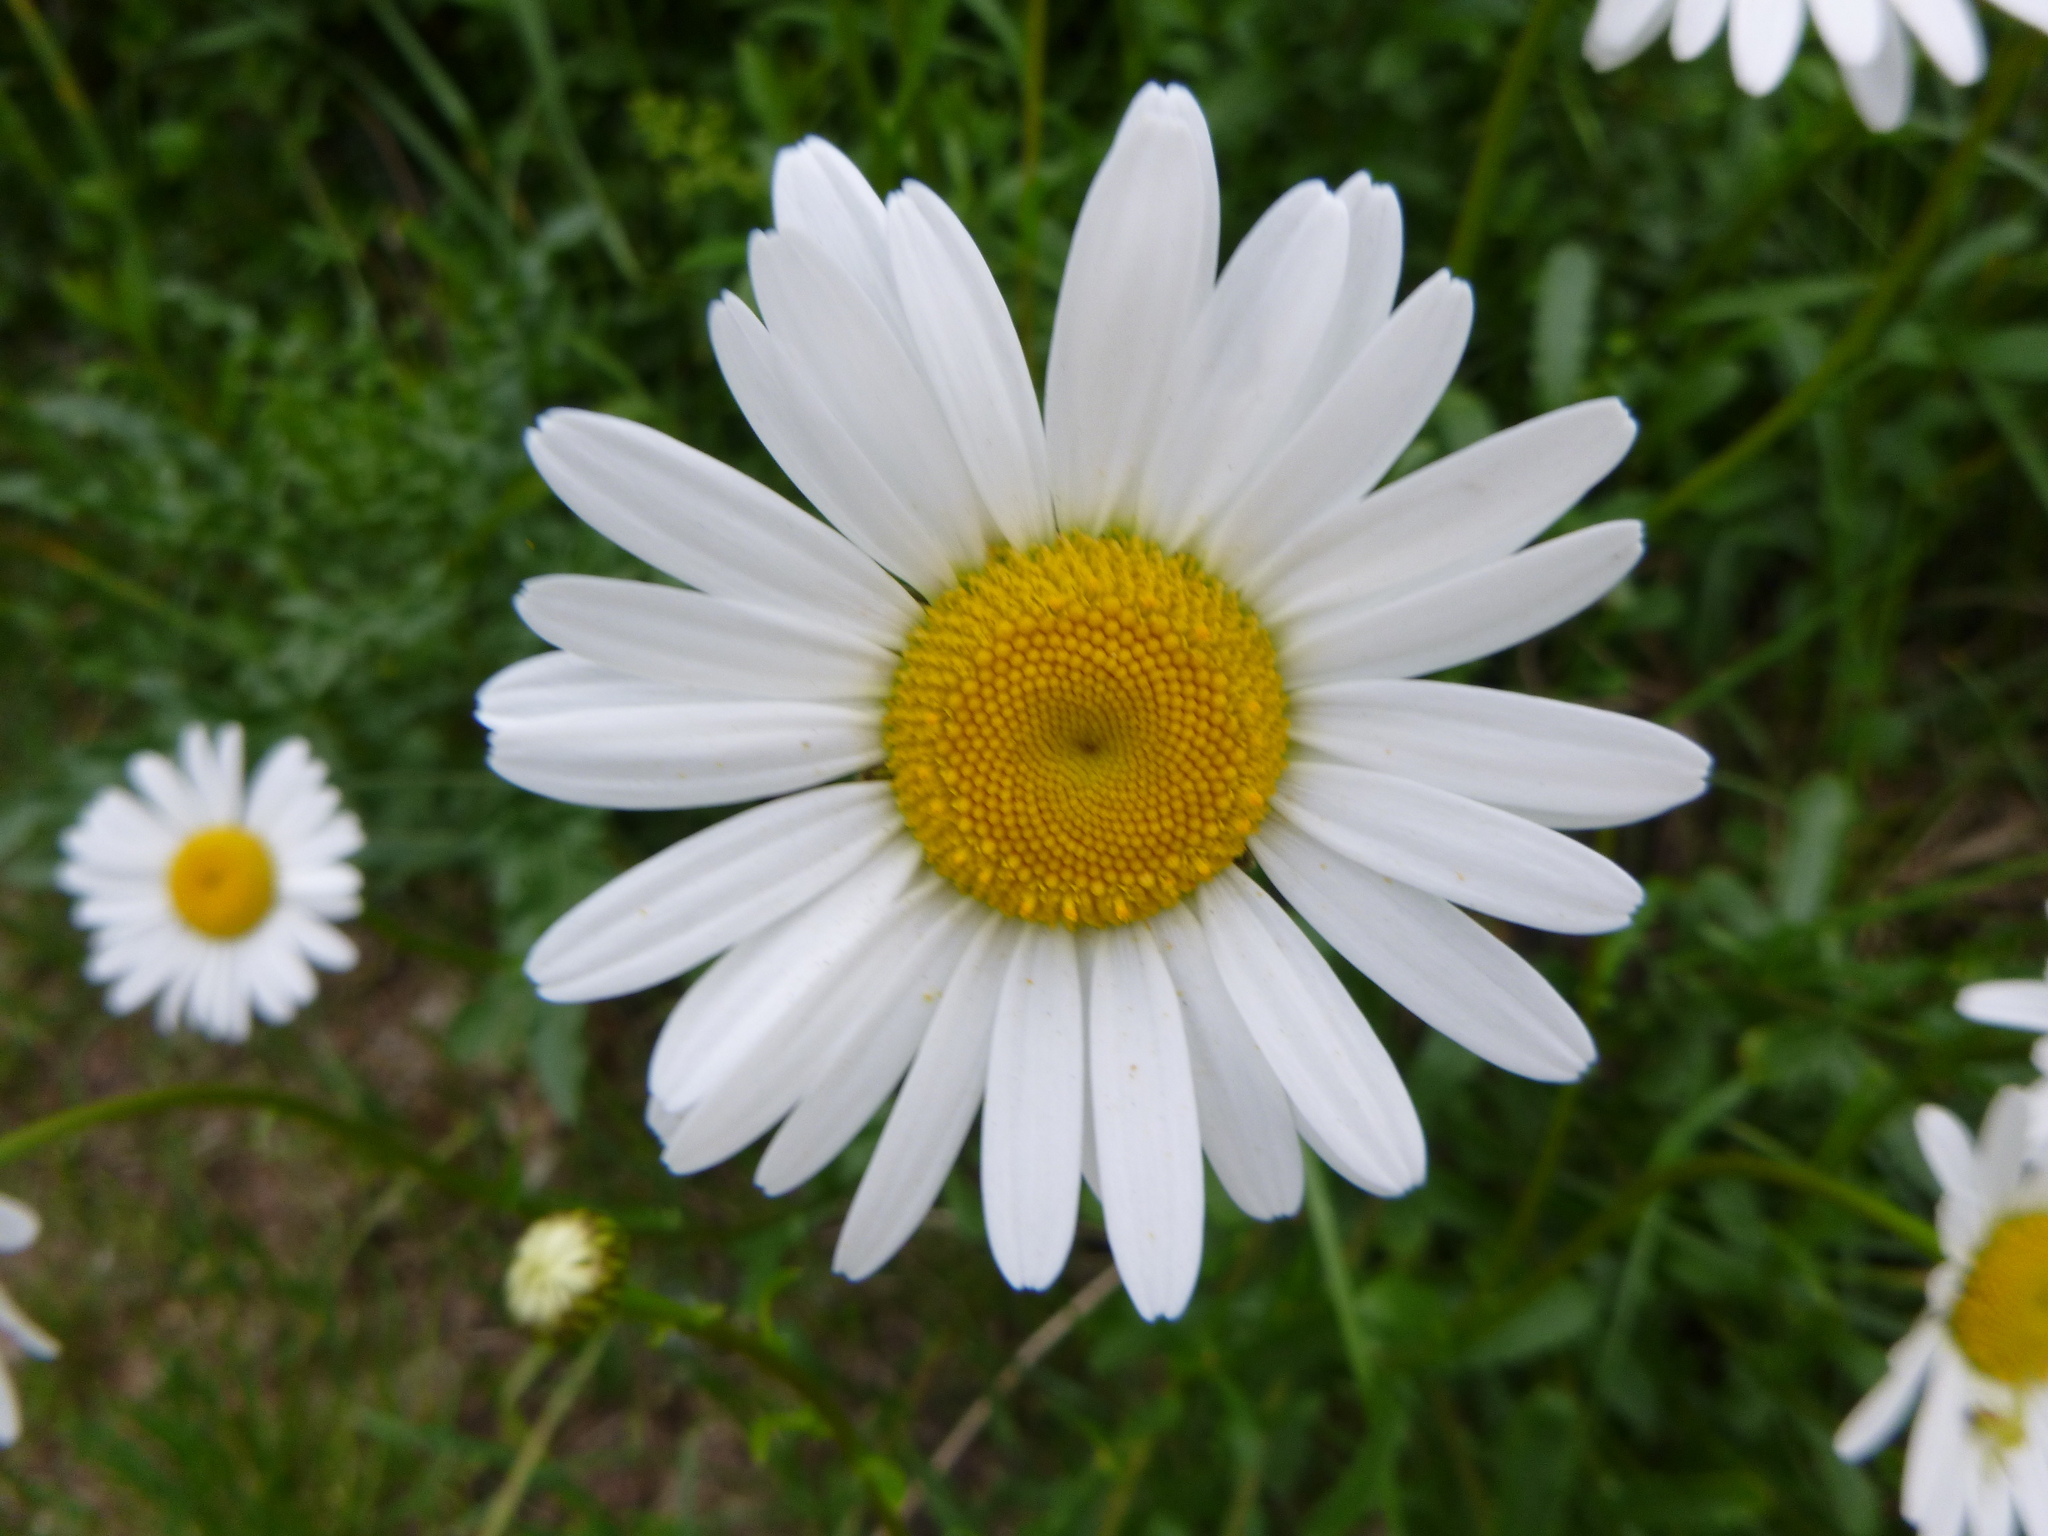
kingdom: Plantae
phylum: Tracheophyta
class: Magnoliopsida
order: Asterales
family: Asteraceae
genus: Leucanthemum
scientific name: Leucanthemum vulgare
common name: Oxeye daisy
